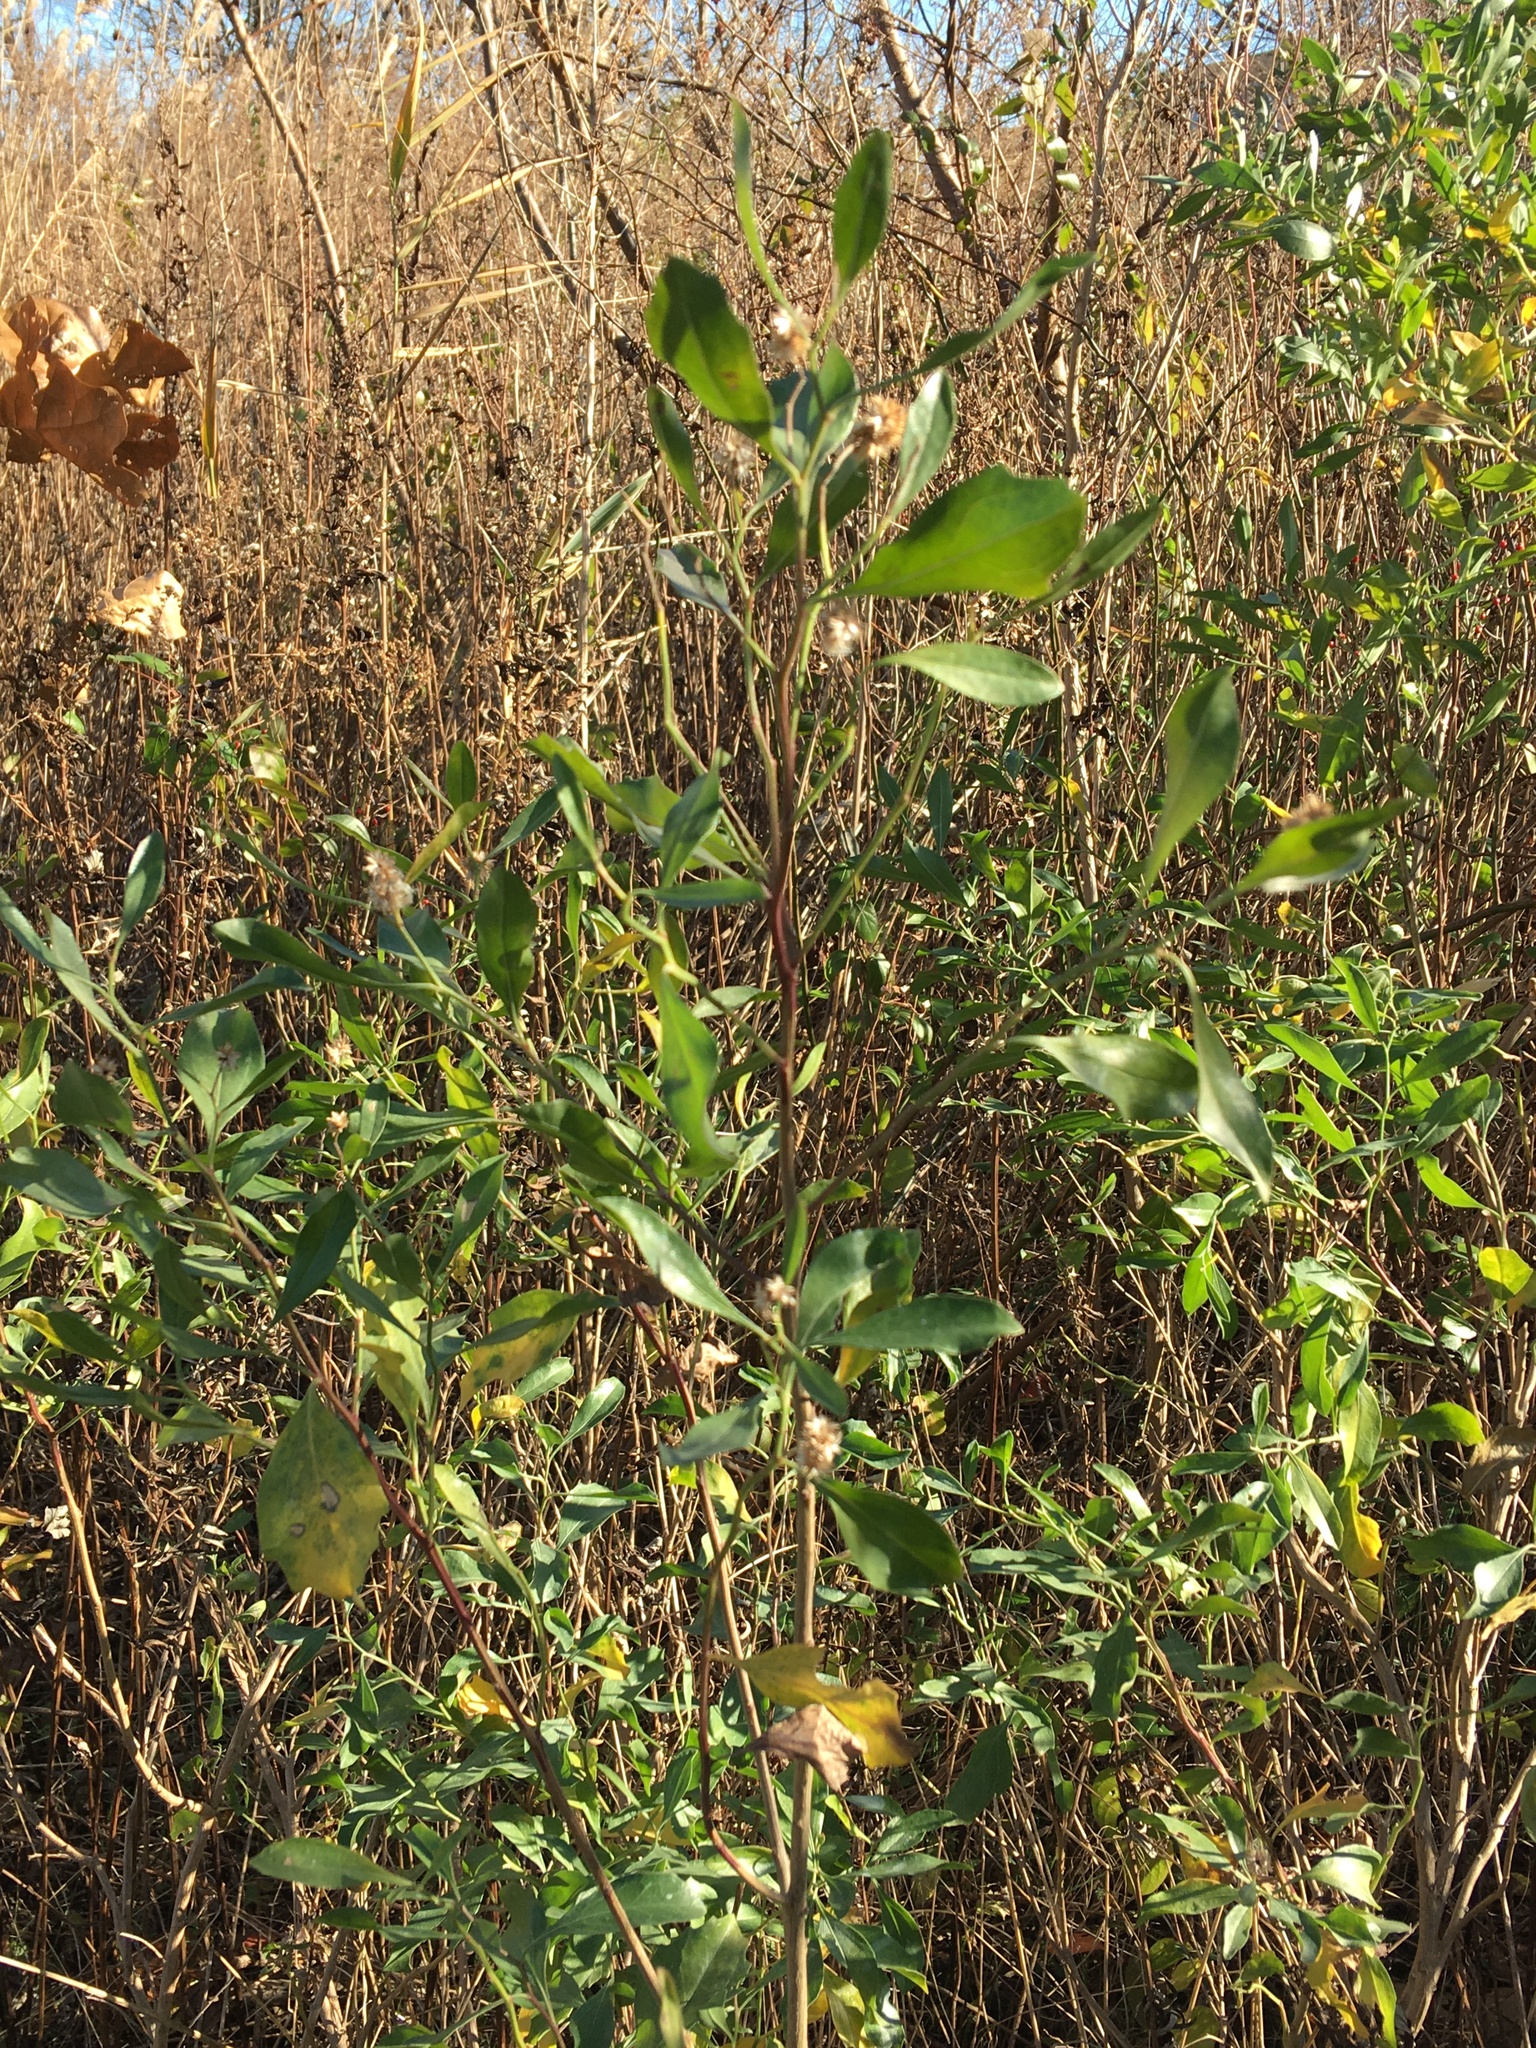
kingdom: Plantae
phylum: Tracheophyta
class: Magnoliopsida
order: Asterales
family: Asteraceae
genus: Baccharis
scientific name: Baccharis halimifolia
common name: Eastern baccharis
